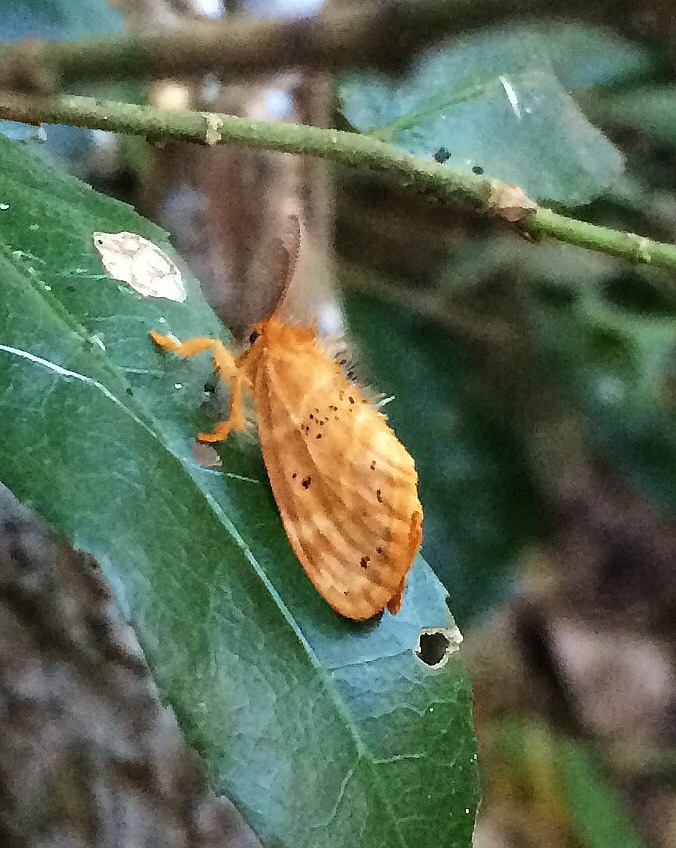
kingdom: Animalia
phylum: Arthropoda
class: Insecta
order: Lepidoptera
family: Erebidae
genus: Euproctis
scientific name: Euproctis punctifera
